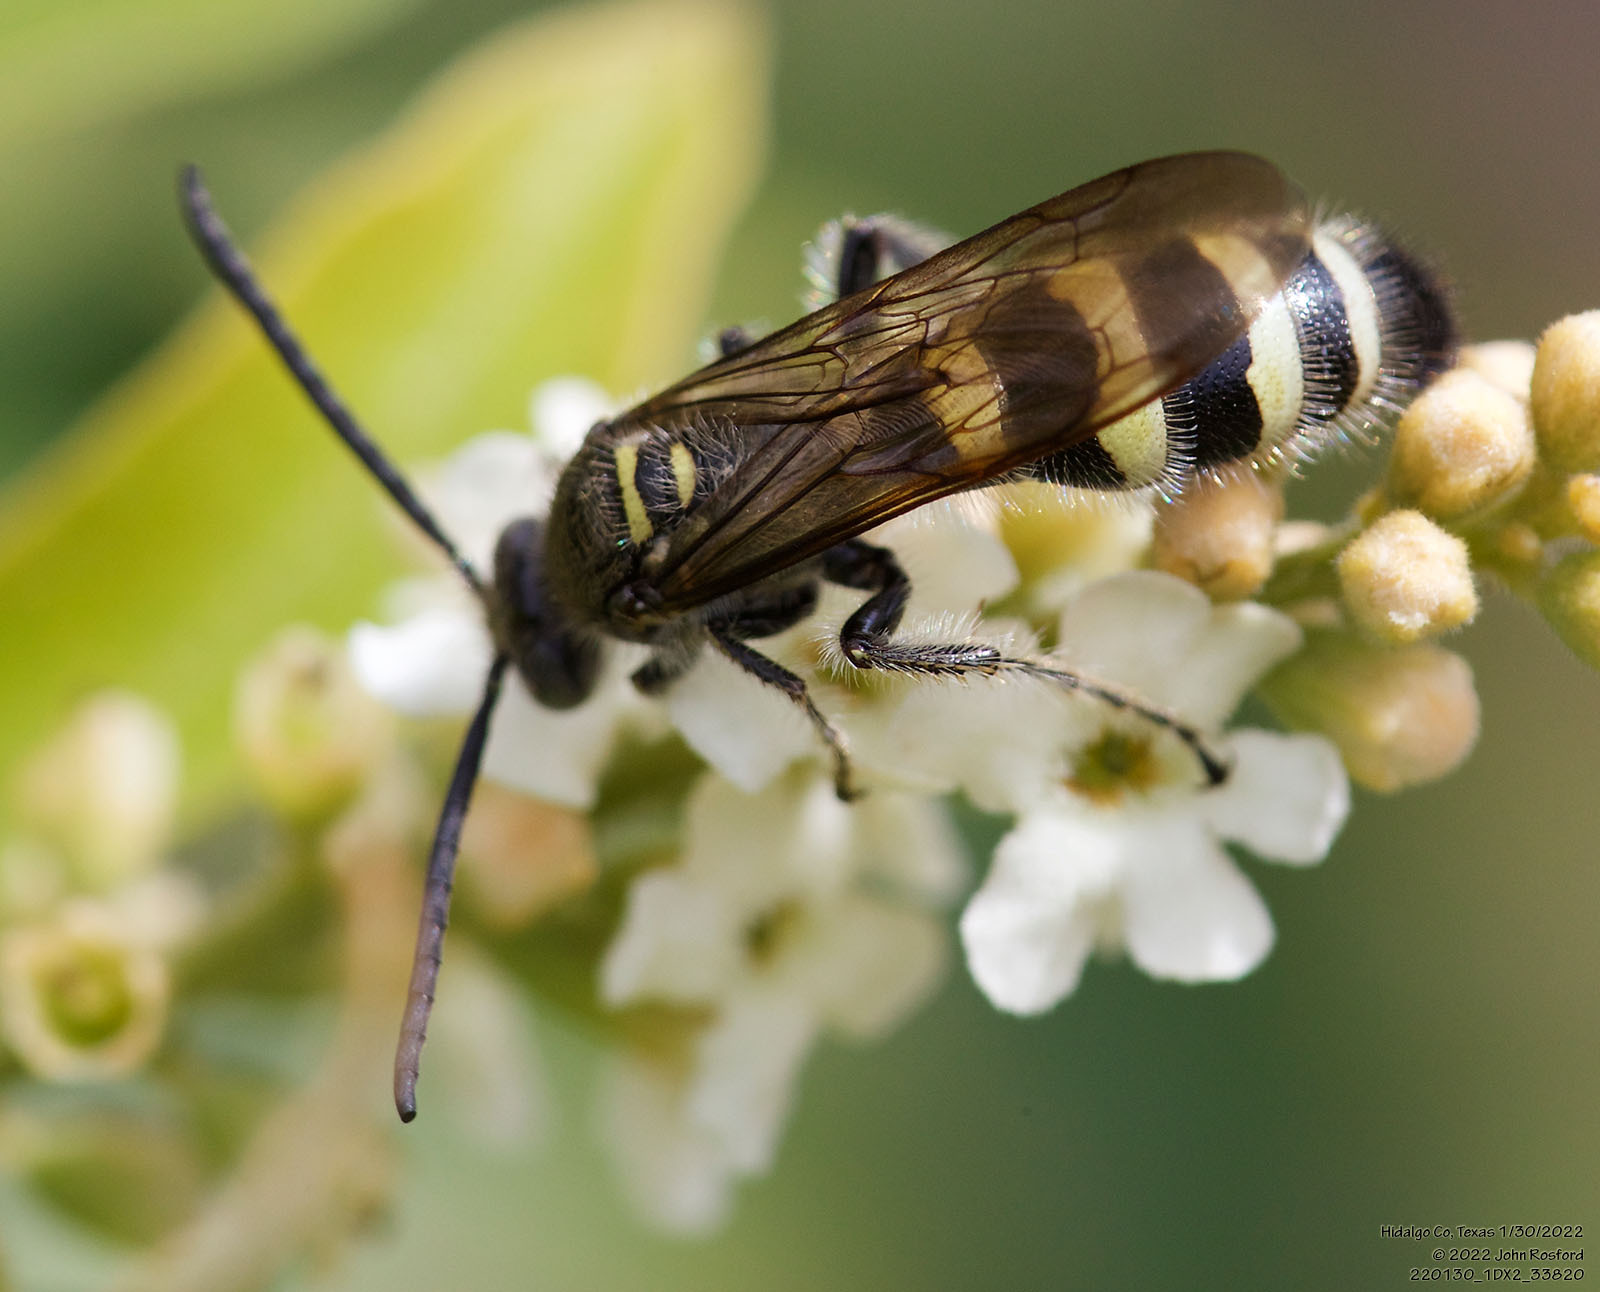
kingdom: Animalia
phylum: Arthropoda
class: Insecta
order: Hymenoptera
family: Scoliidae
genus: Dielis
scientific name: Dielis tolteca
